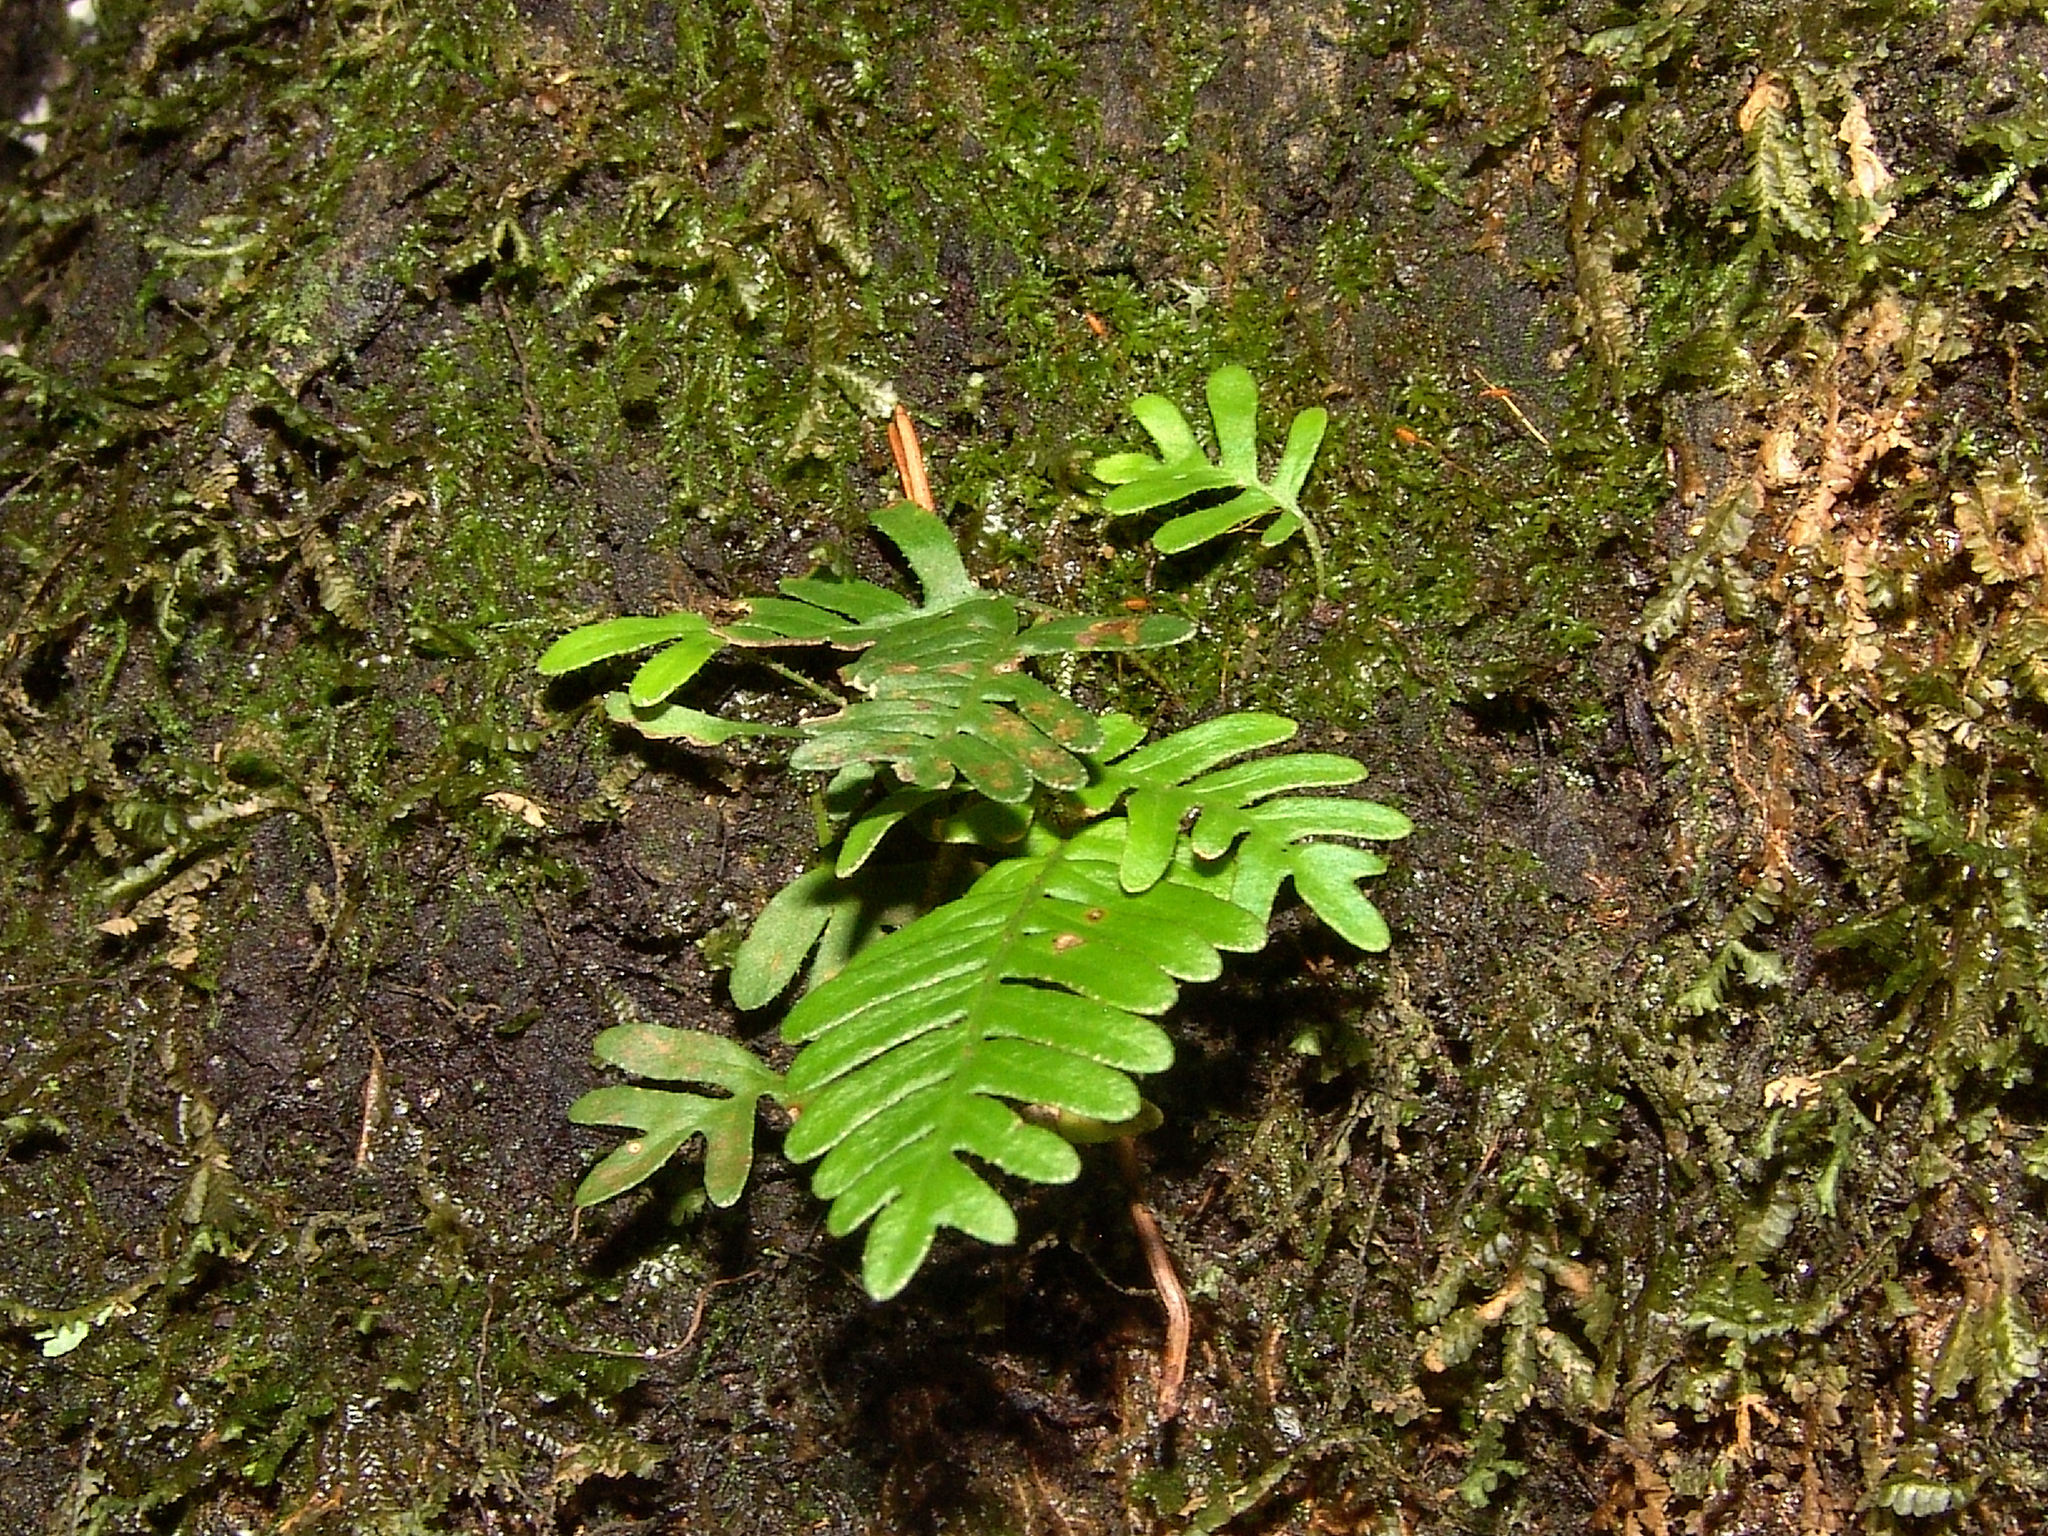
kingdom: Plantae
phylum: Tracheophyta
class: Polypodiopsida
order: Polypodiales
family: Polypodiaceae
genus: Pleopeltis
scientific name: Pleopeltis michauxiana
